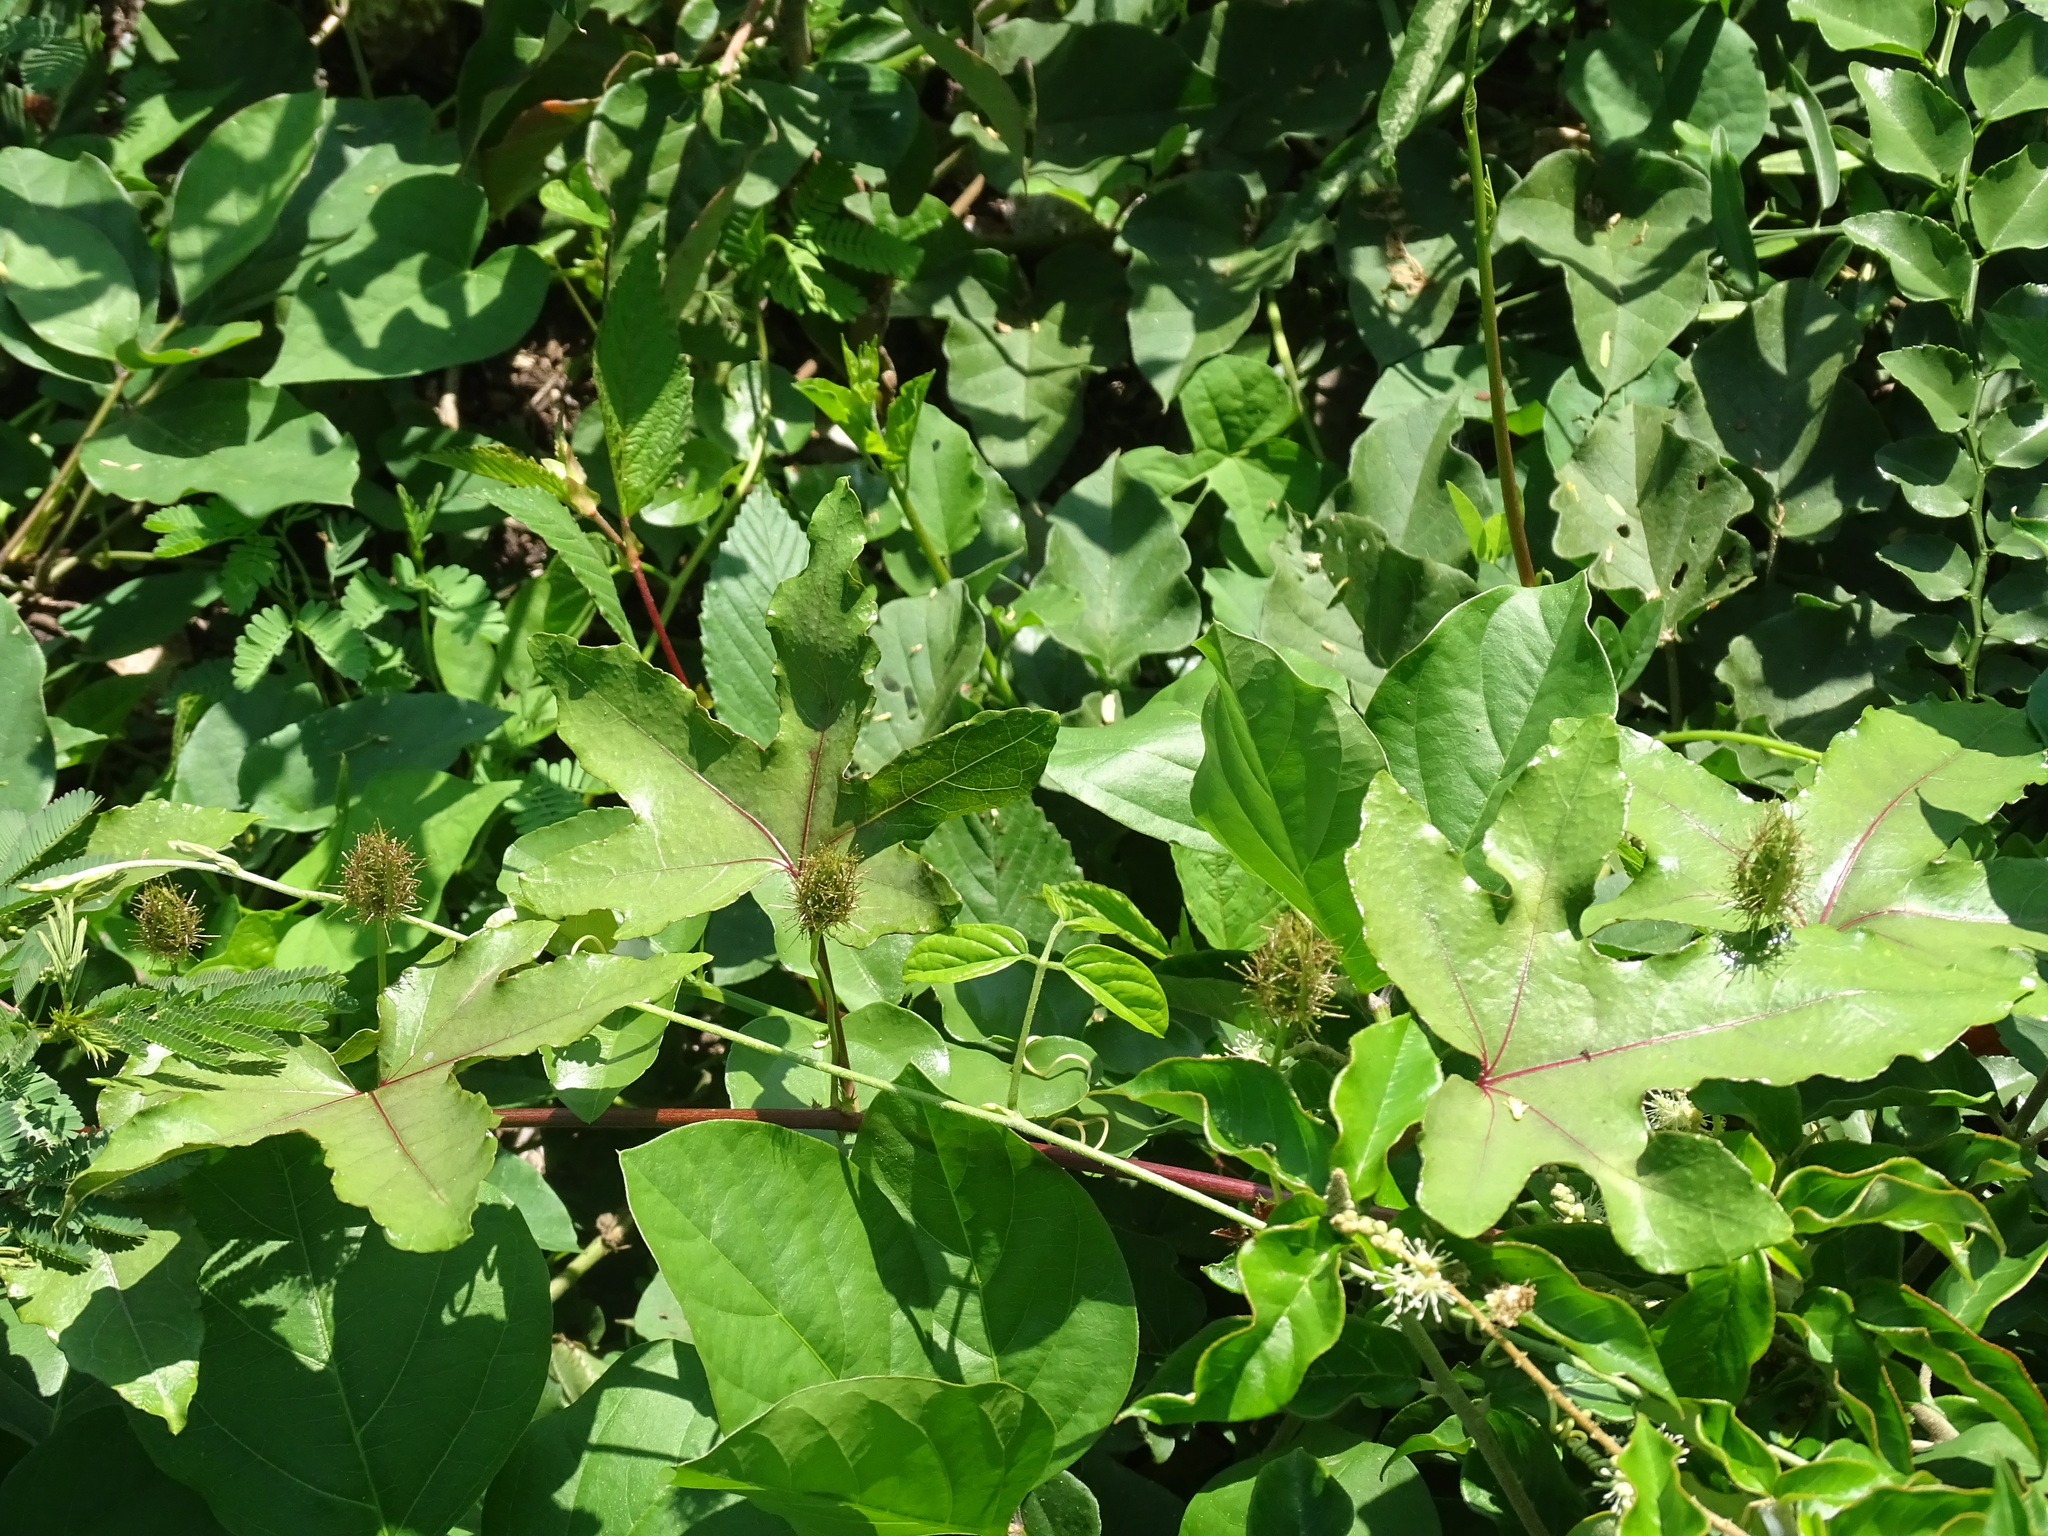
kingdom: Plantae
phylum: Tracheophyta
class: Magnoliopsida
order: Malpighiales
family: Passifloraceae
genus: Passiflora
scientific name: Passiflora ciliata
